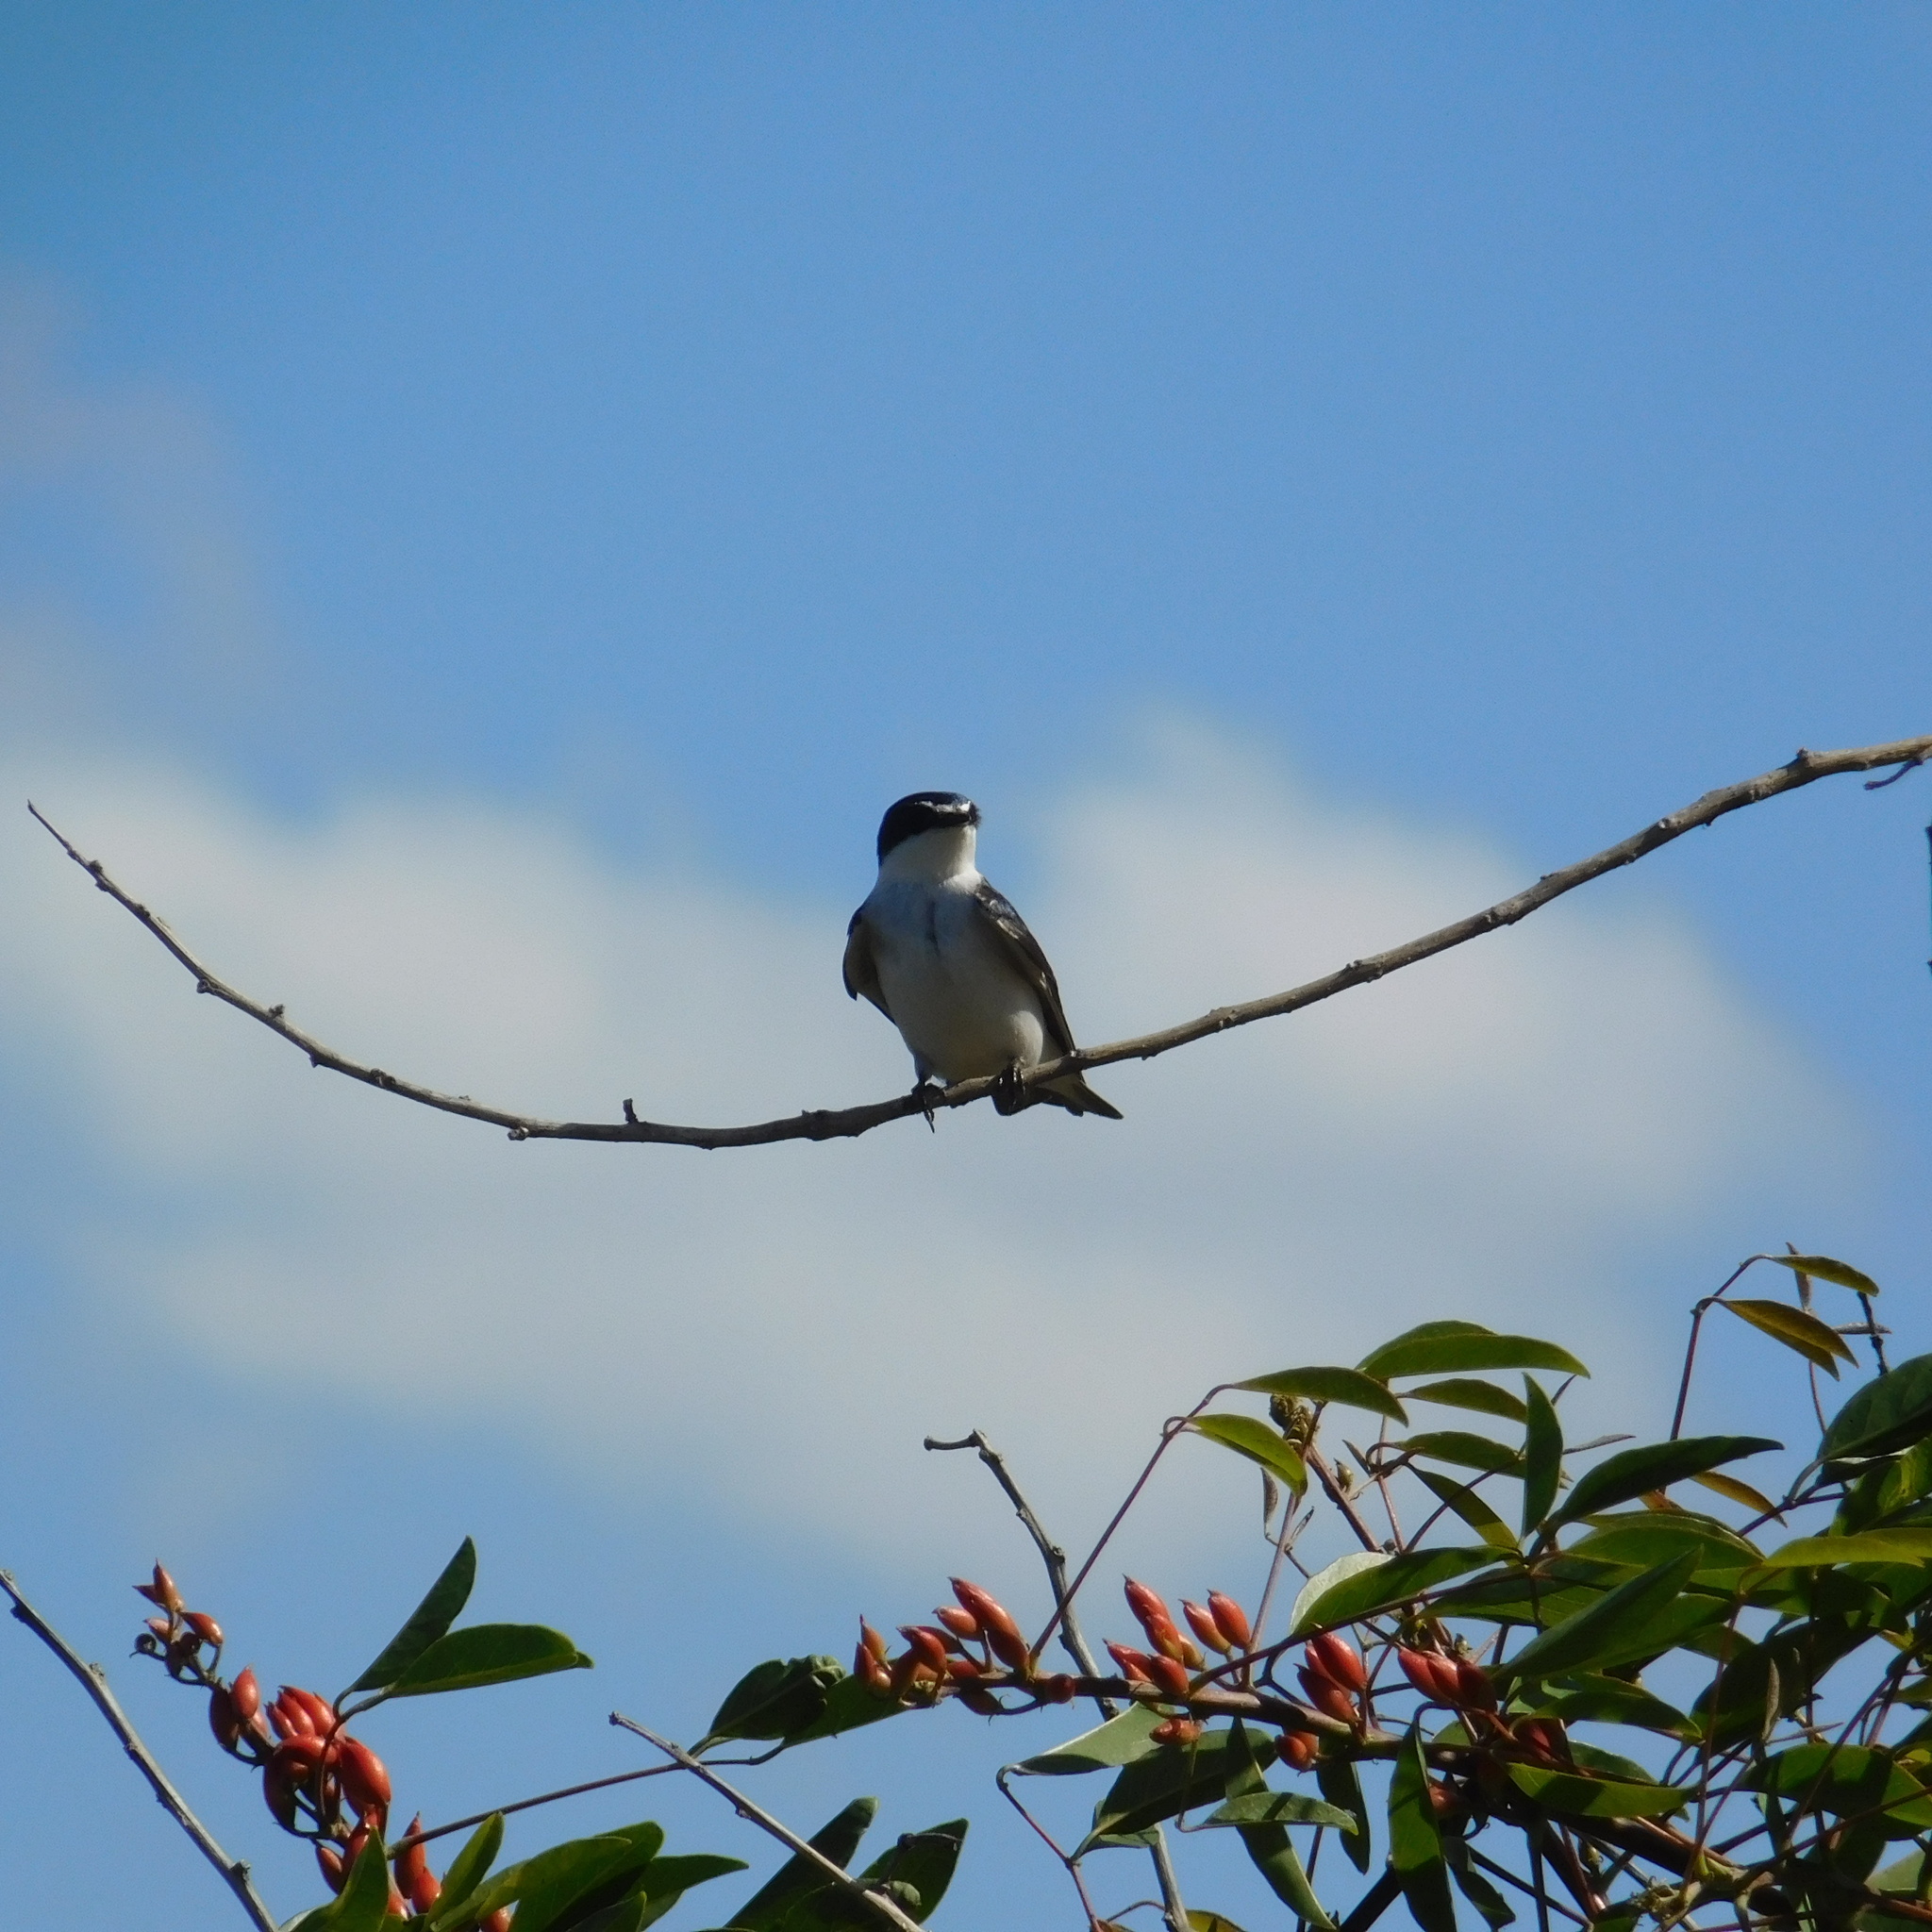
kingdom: Animalia
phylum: Chordata
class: Aves
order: Passeriformes
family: Hirundinidae
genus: Tachycineta
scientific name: Tachycineta leucorrhoa
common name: White-rumped swallow
